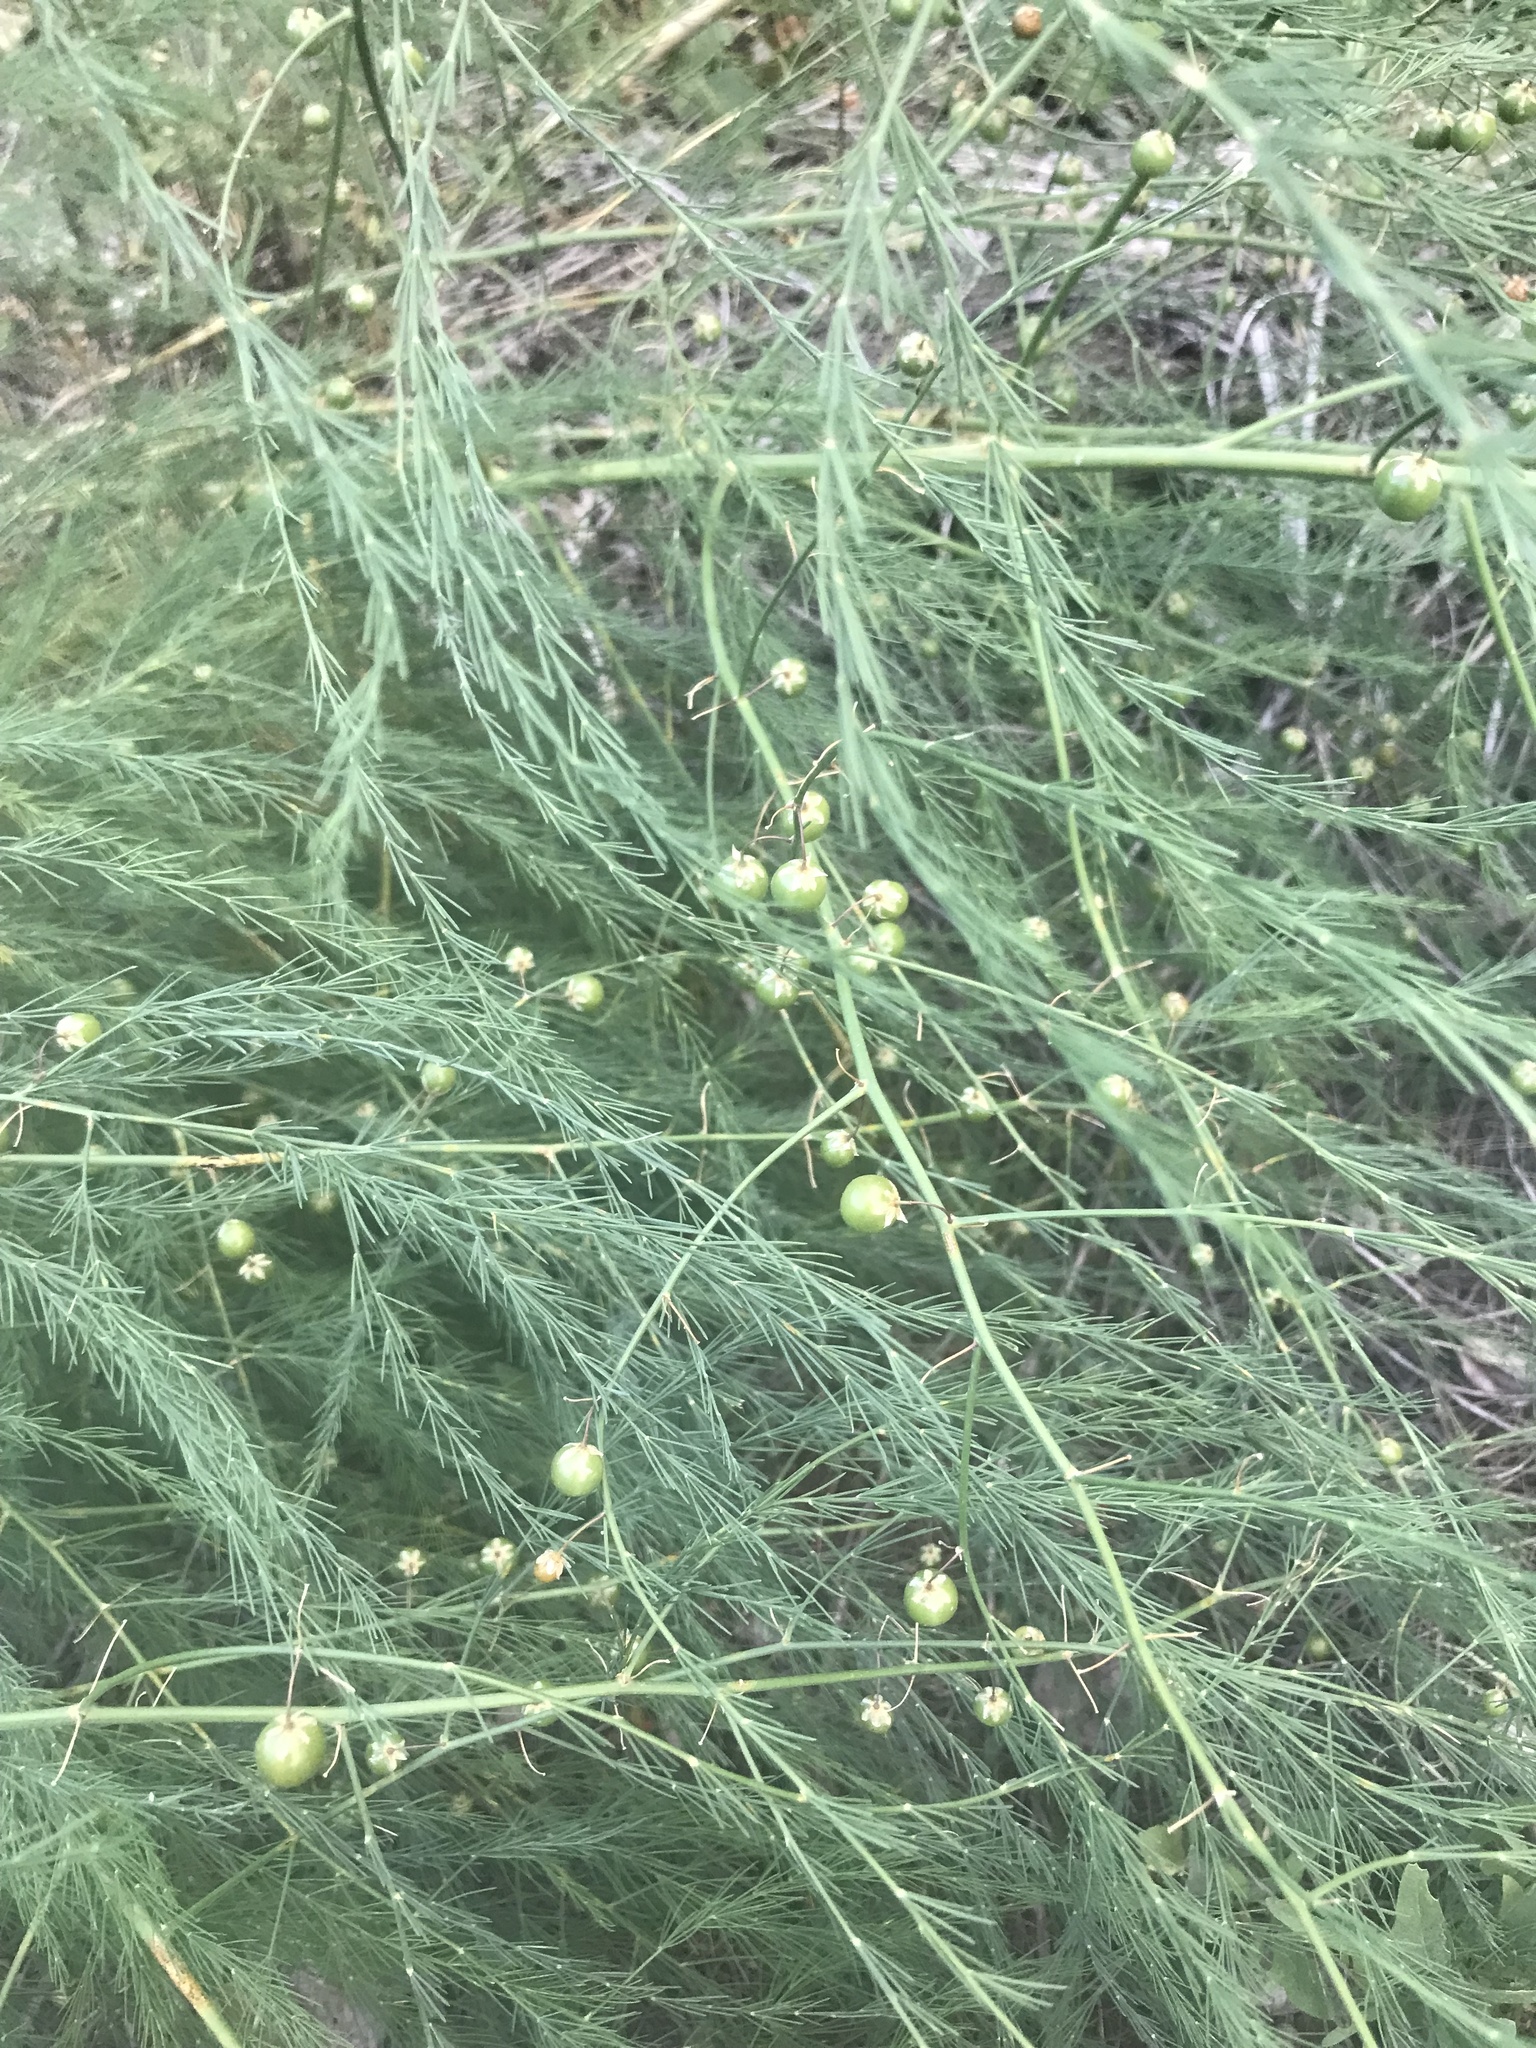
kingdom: Plantae
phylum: Tracheophyta
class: Liliopsida
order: Asparagales
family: Asparagaceae
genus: Asparagus
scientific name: Asparagus officinalis
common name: Garden asparagus
